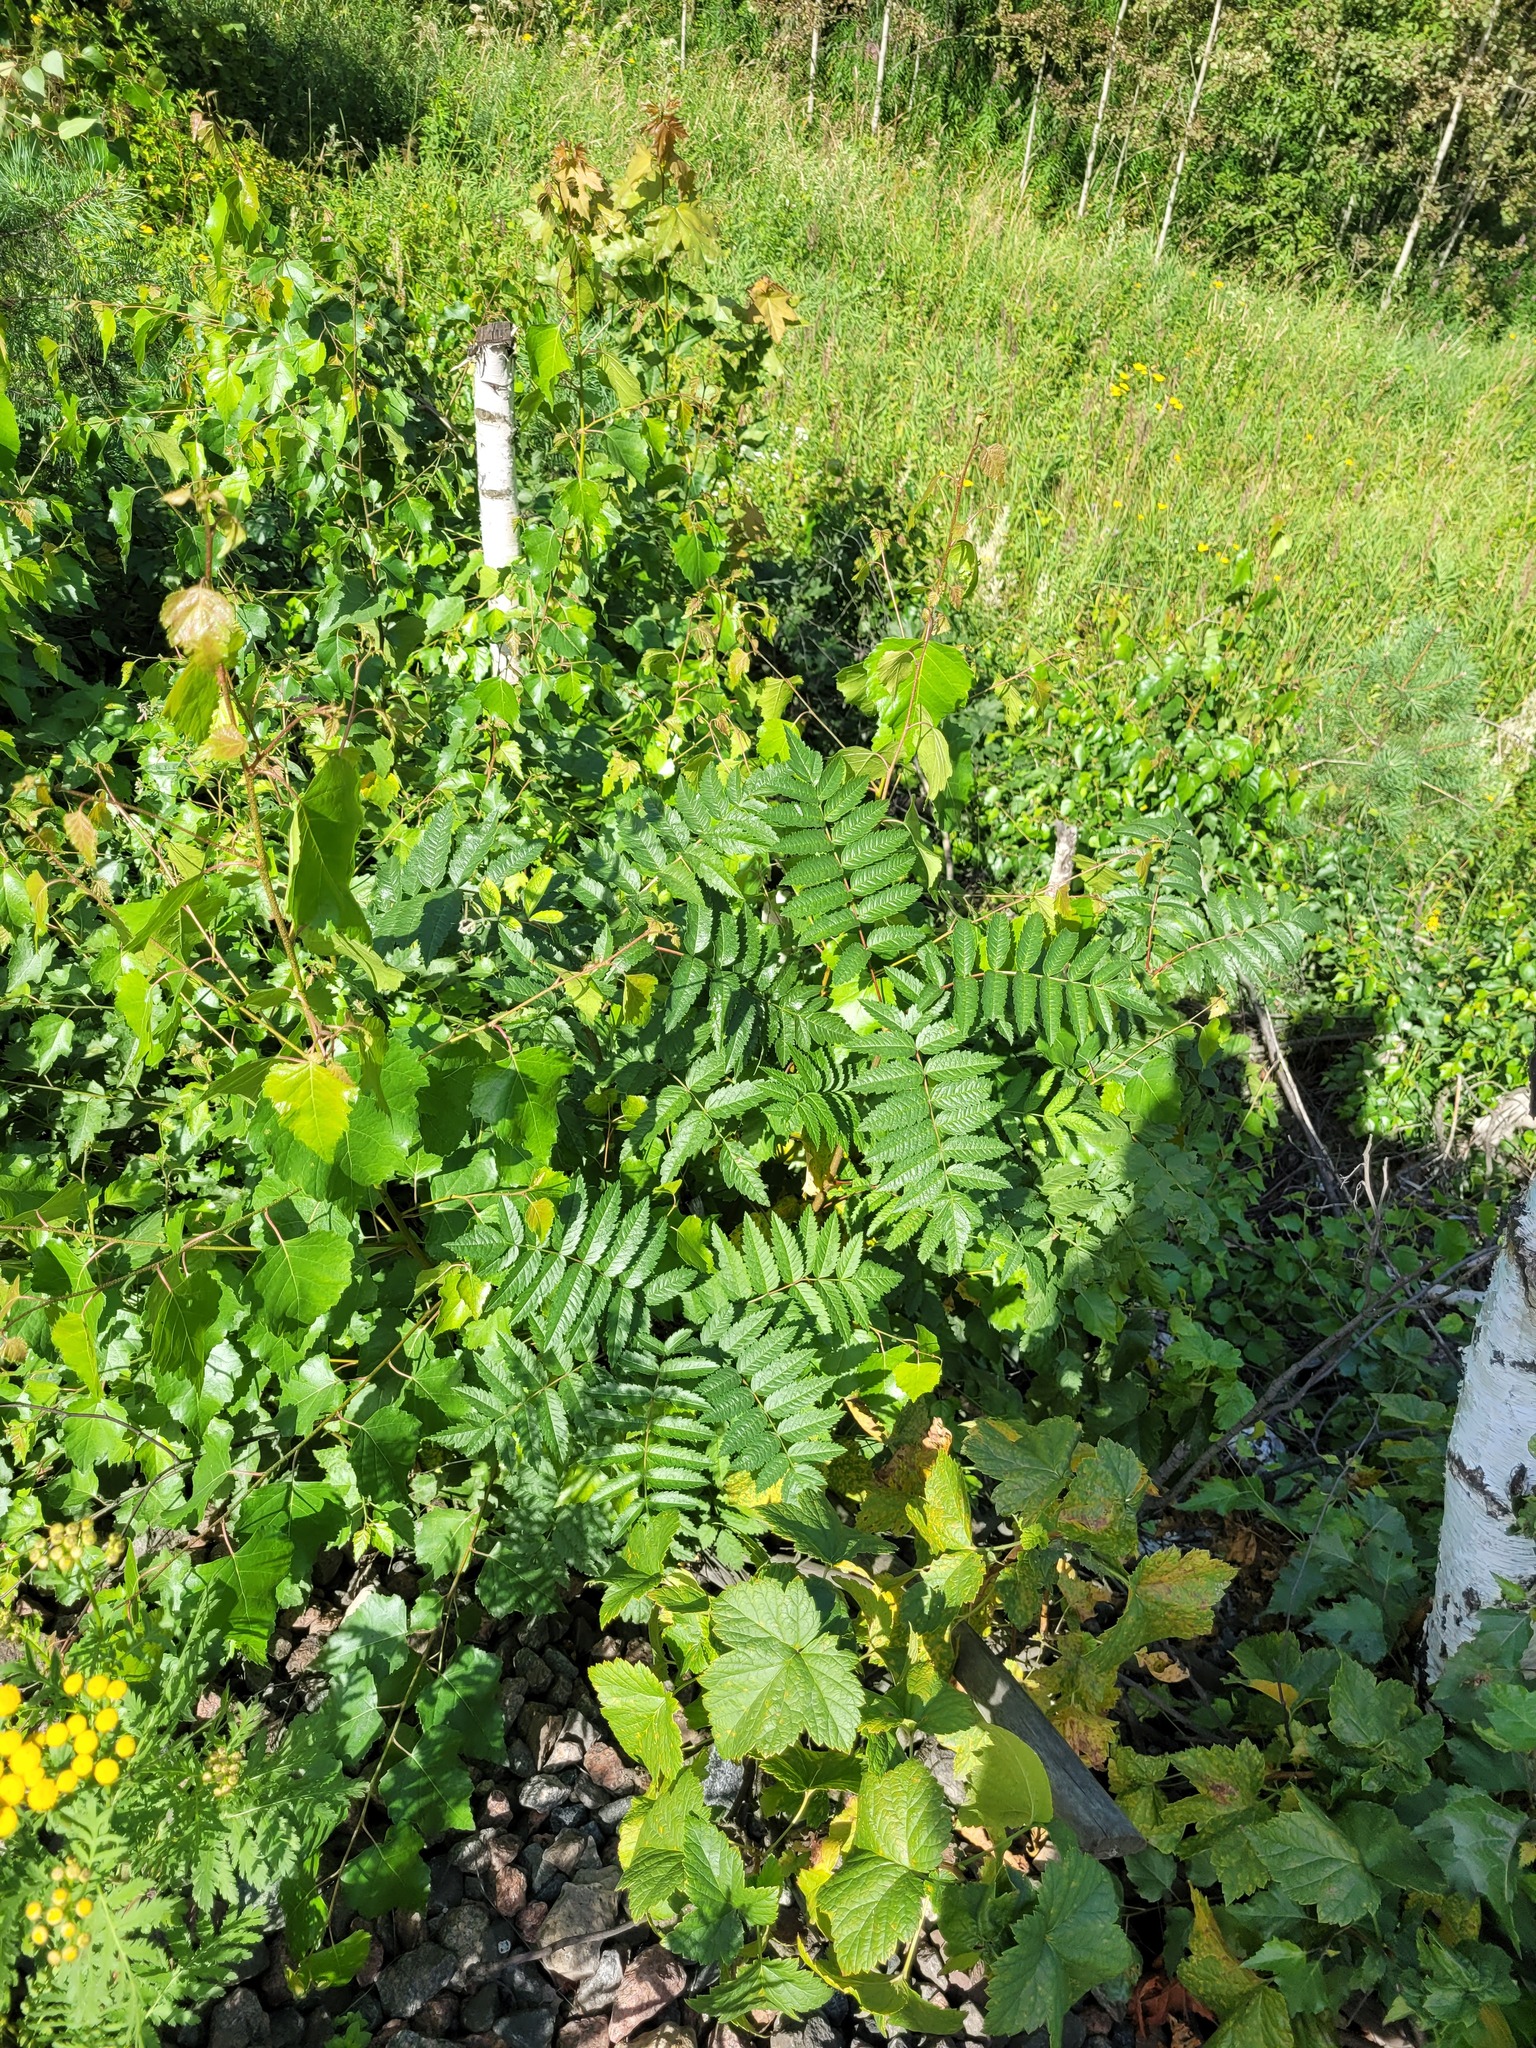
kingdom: Plantae
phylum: Tracheophyta
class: Magnoliopsida
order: Rosales
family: Rosaceae
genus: Sorbus
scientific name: Sorbus aucuparia
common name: Rowan
